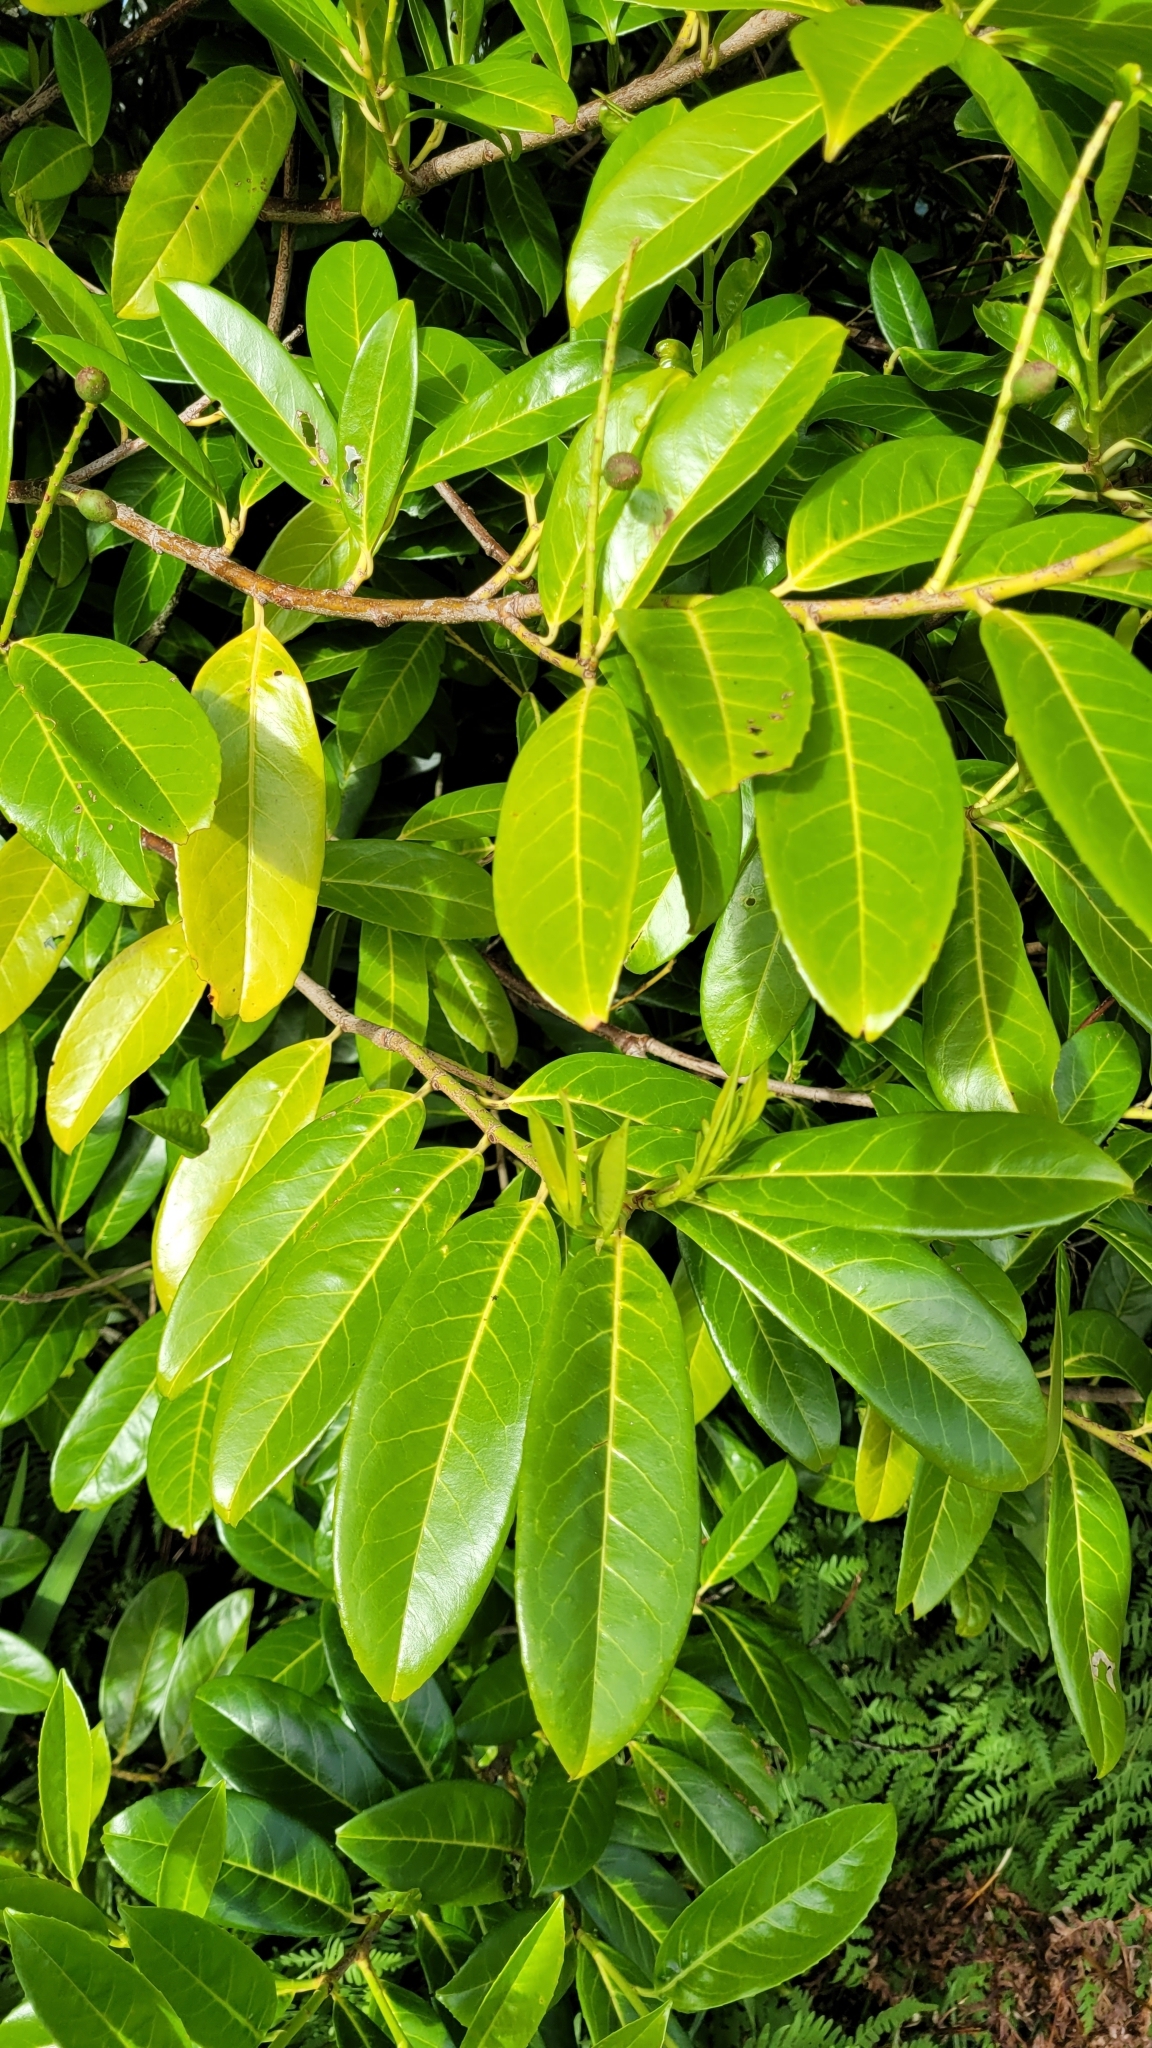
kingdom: Plantae
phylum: Tracheophyta
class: Magnoliopsida
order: Rosales
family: Rosaceae
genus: Prunus
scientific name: Prunus laurocerasus
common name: Cherry laurel
